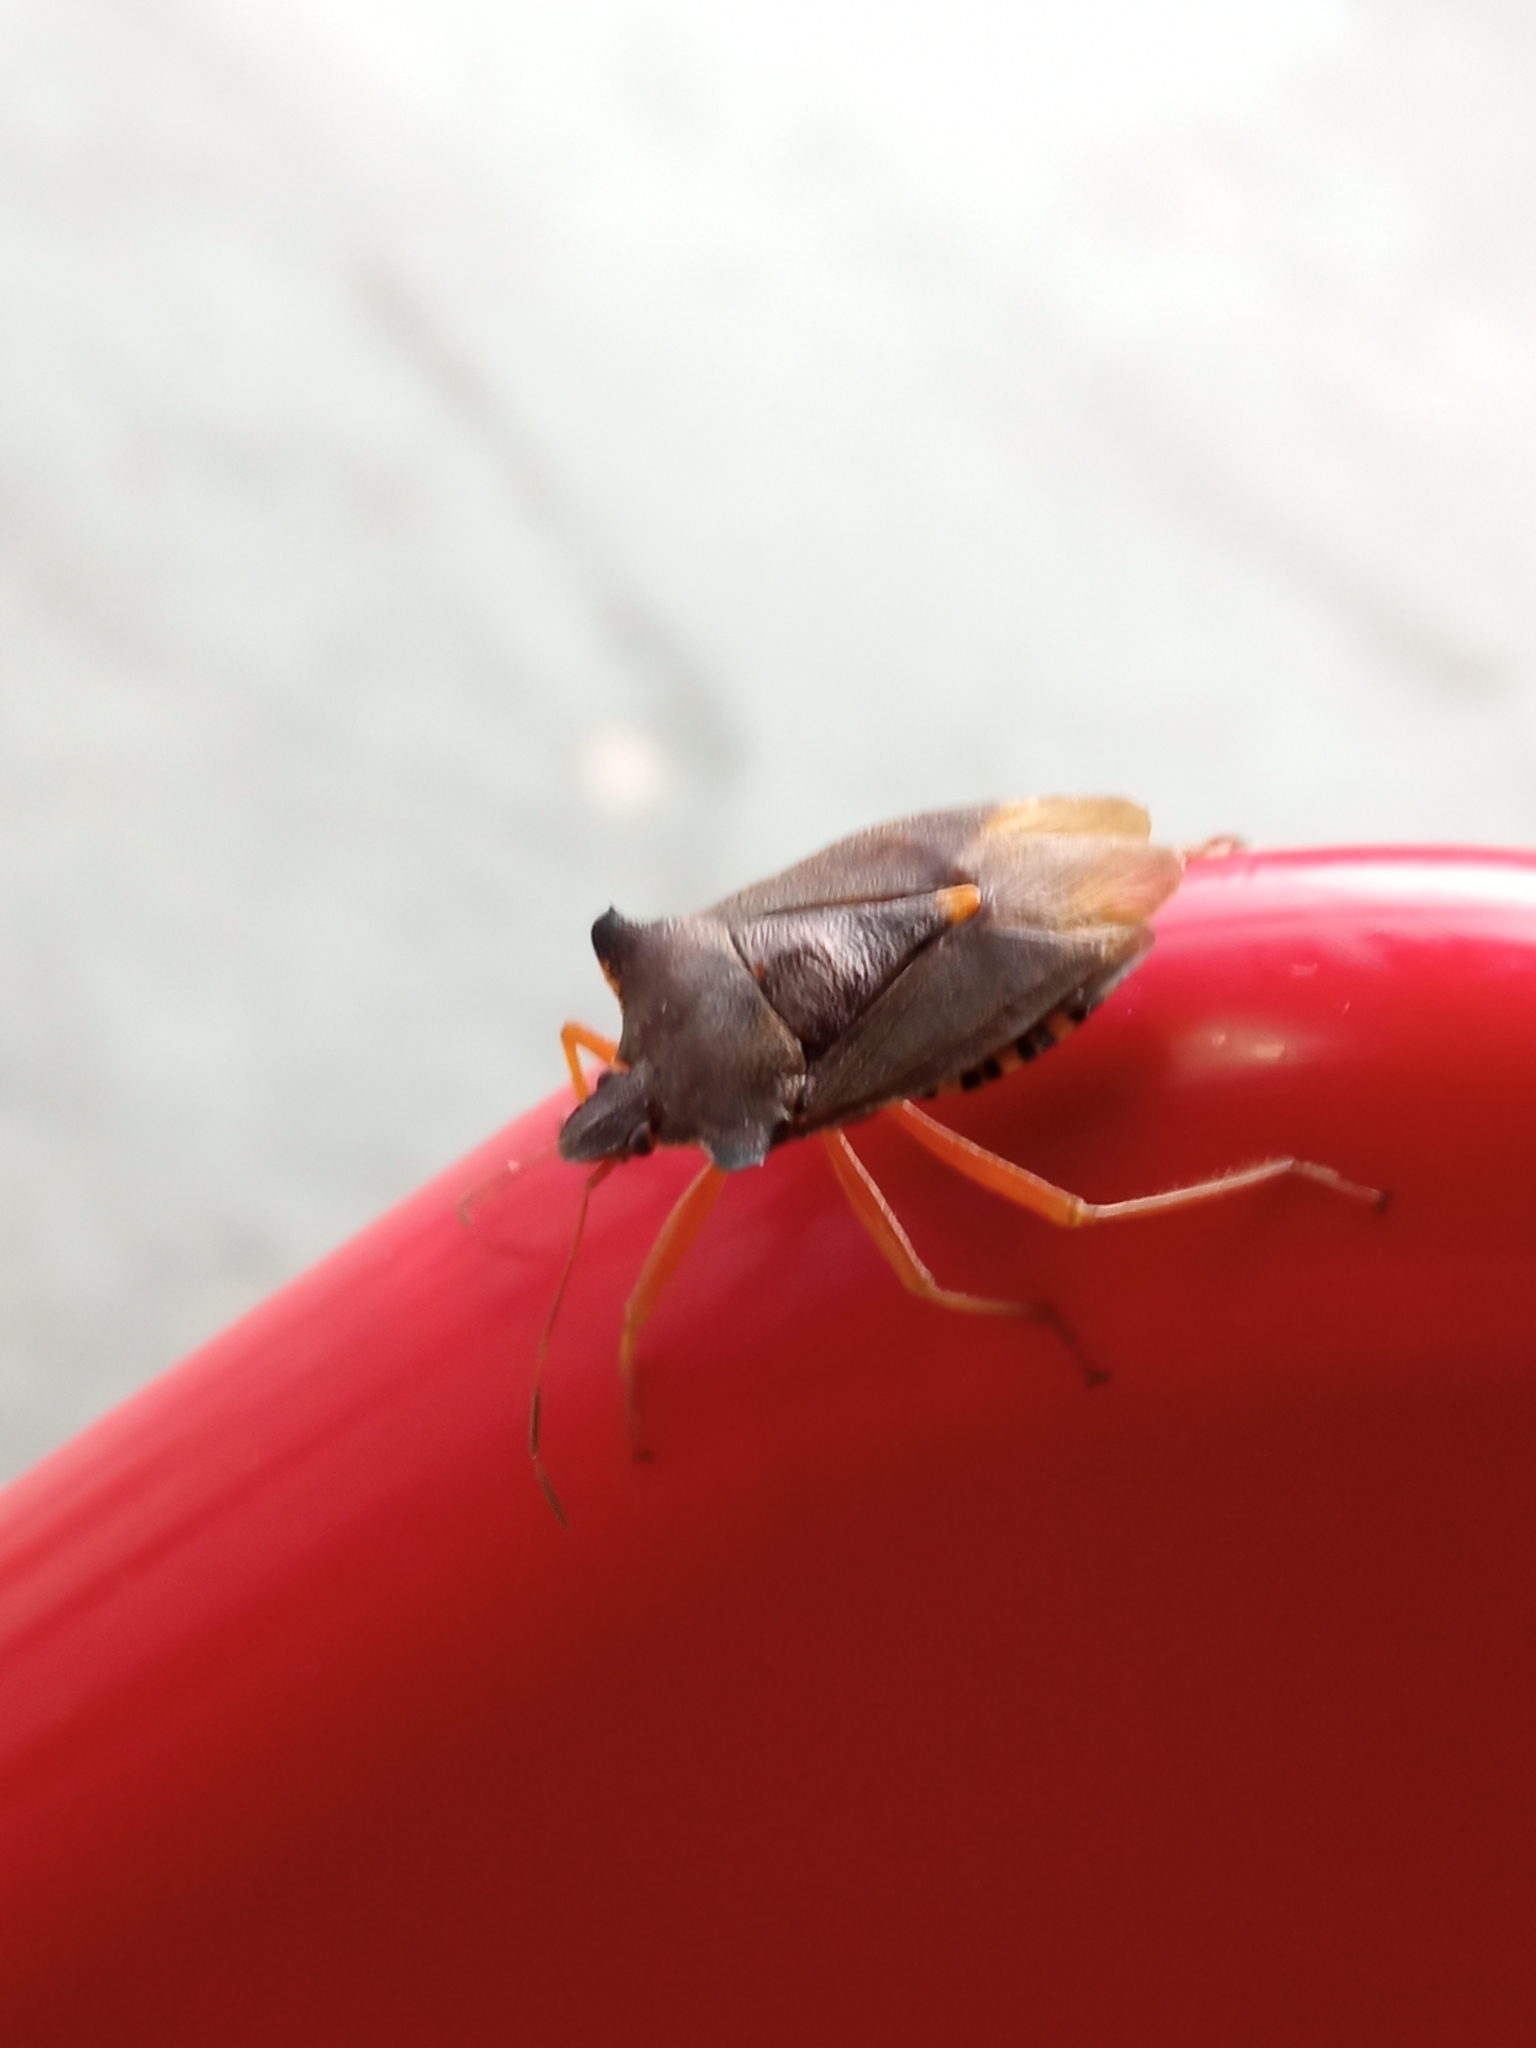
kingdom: Animalia
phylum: Arthropoda
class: Insecta
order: Hemiptera
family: Pentatomidae
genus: Pentatoma
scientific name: Pentatoma rufipes
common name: Forest bug
